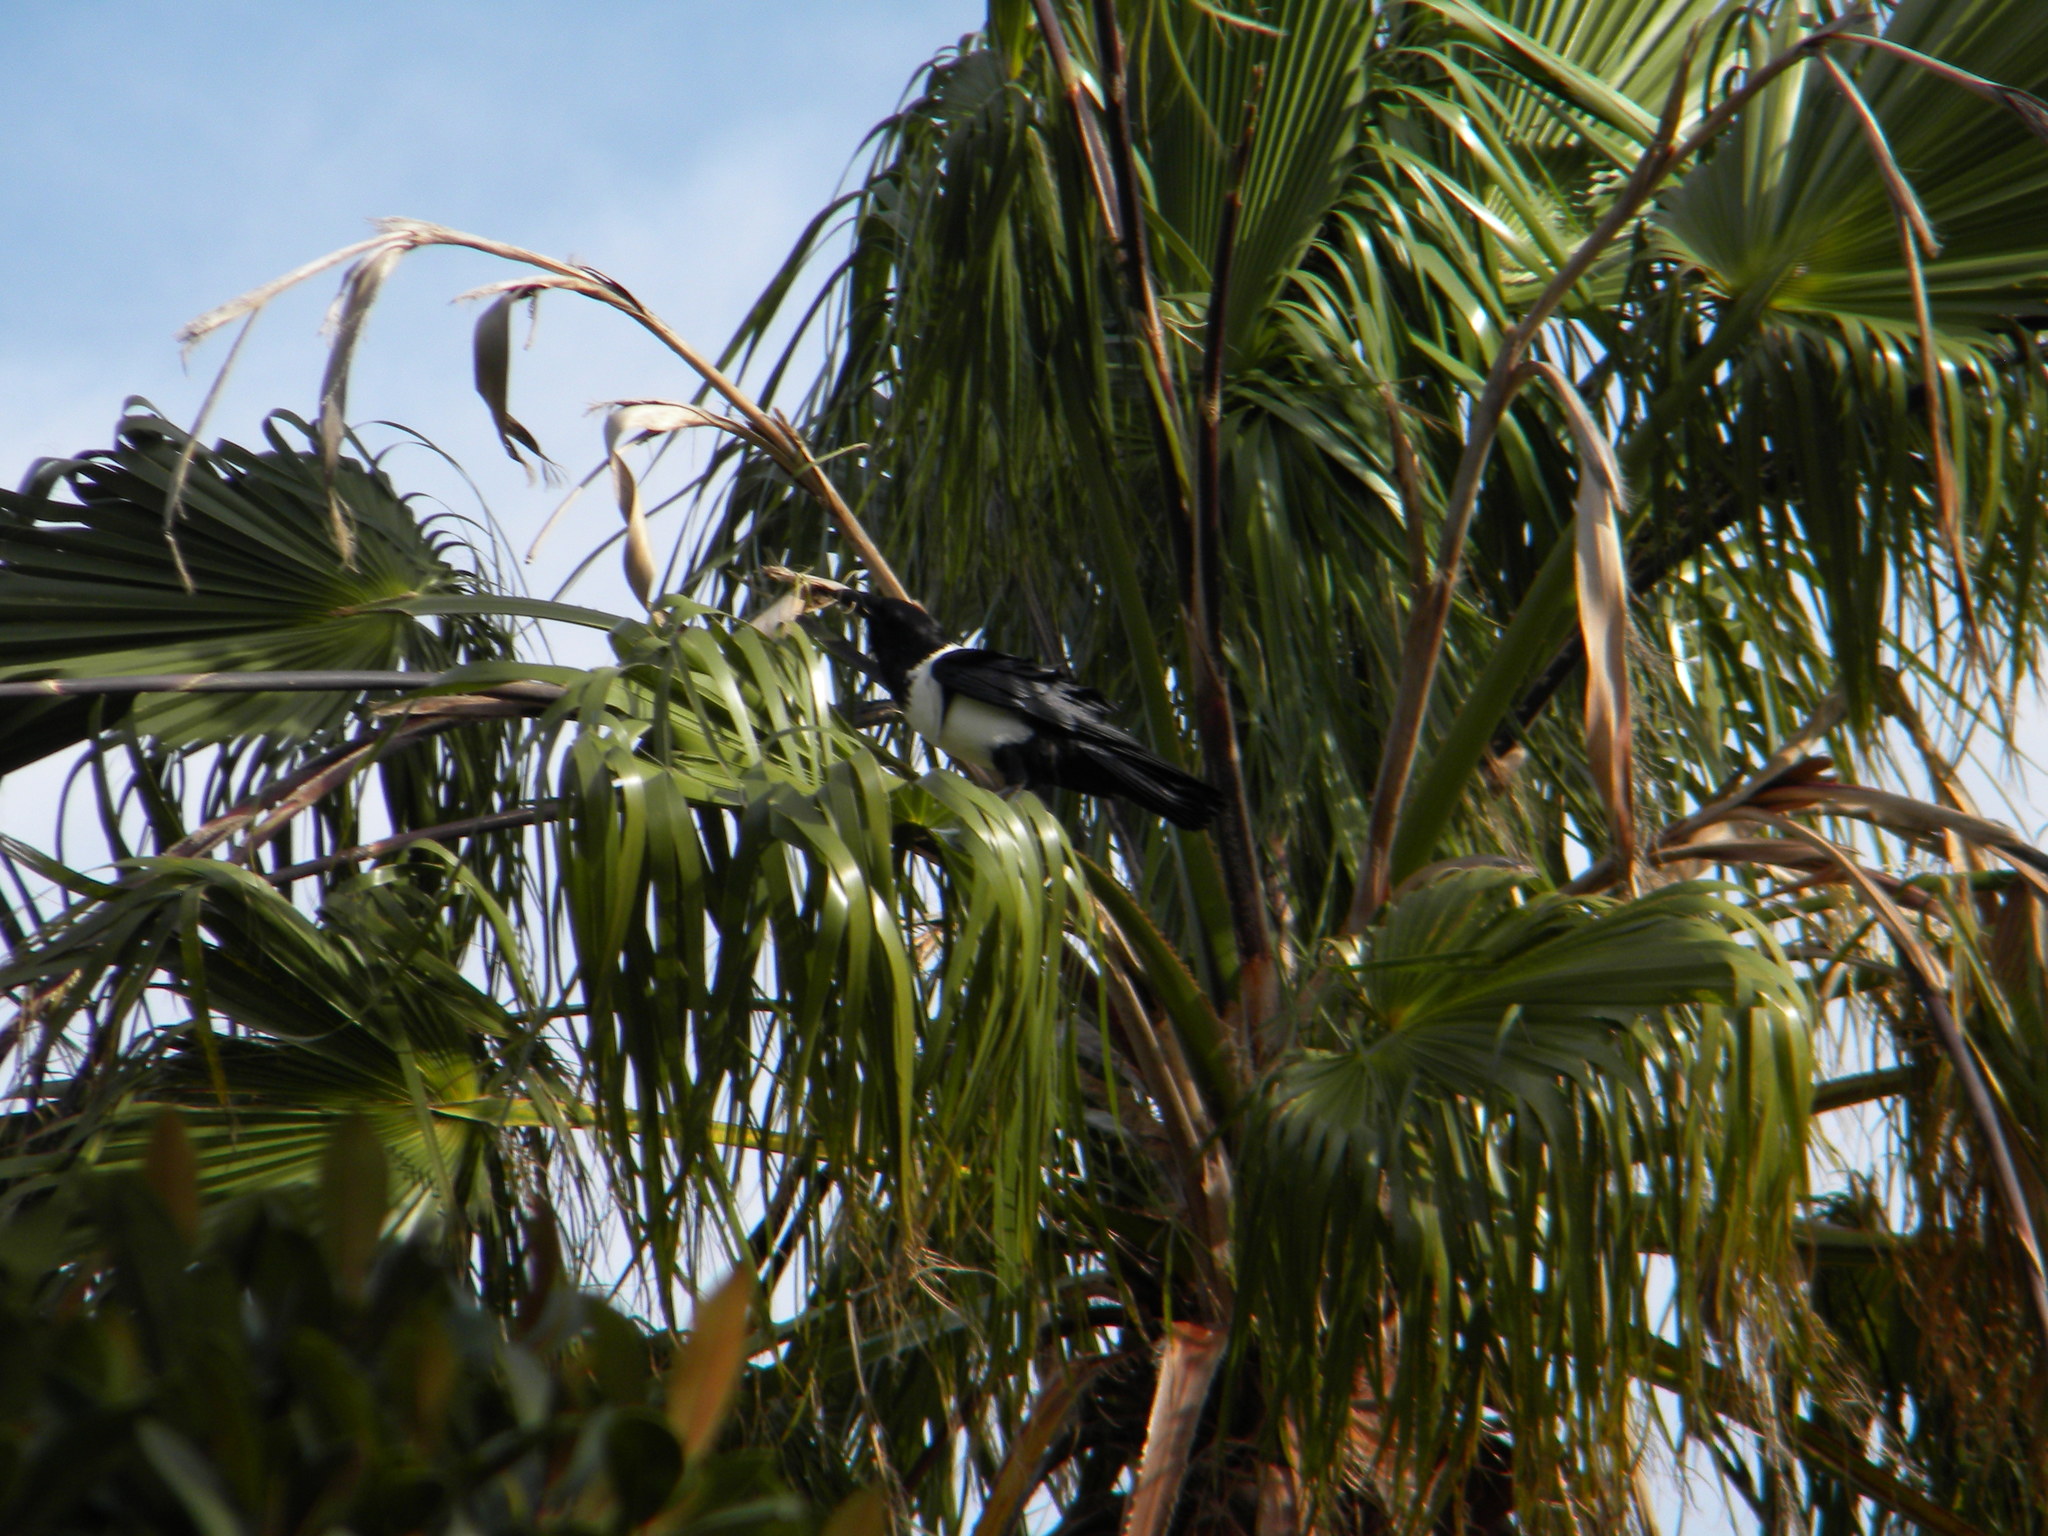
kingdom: Animalia
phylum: Chordata
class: Aves
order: Passeriformes
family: Corvidae
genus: Corvus
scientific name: Corvus albus
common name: Pied crow
